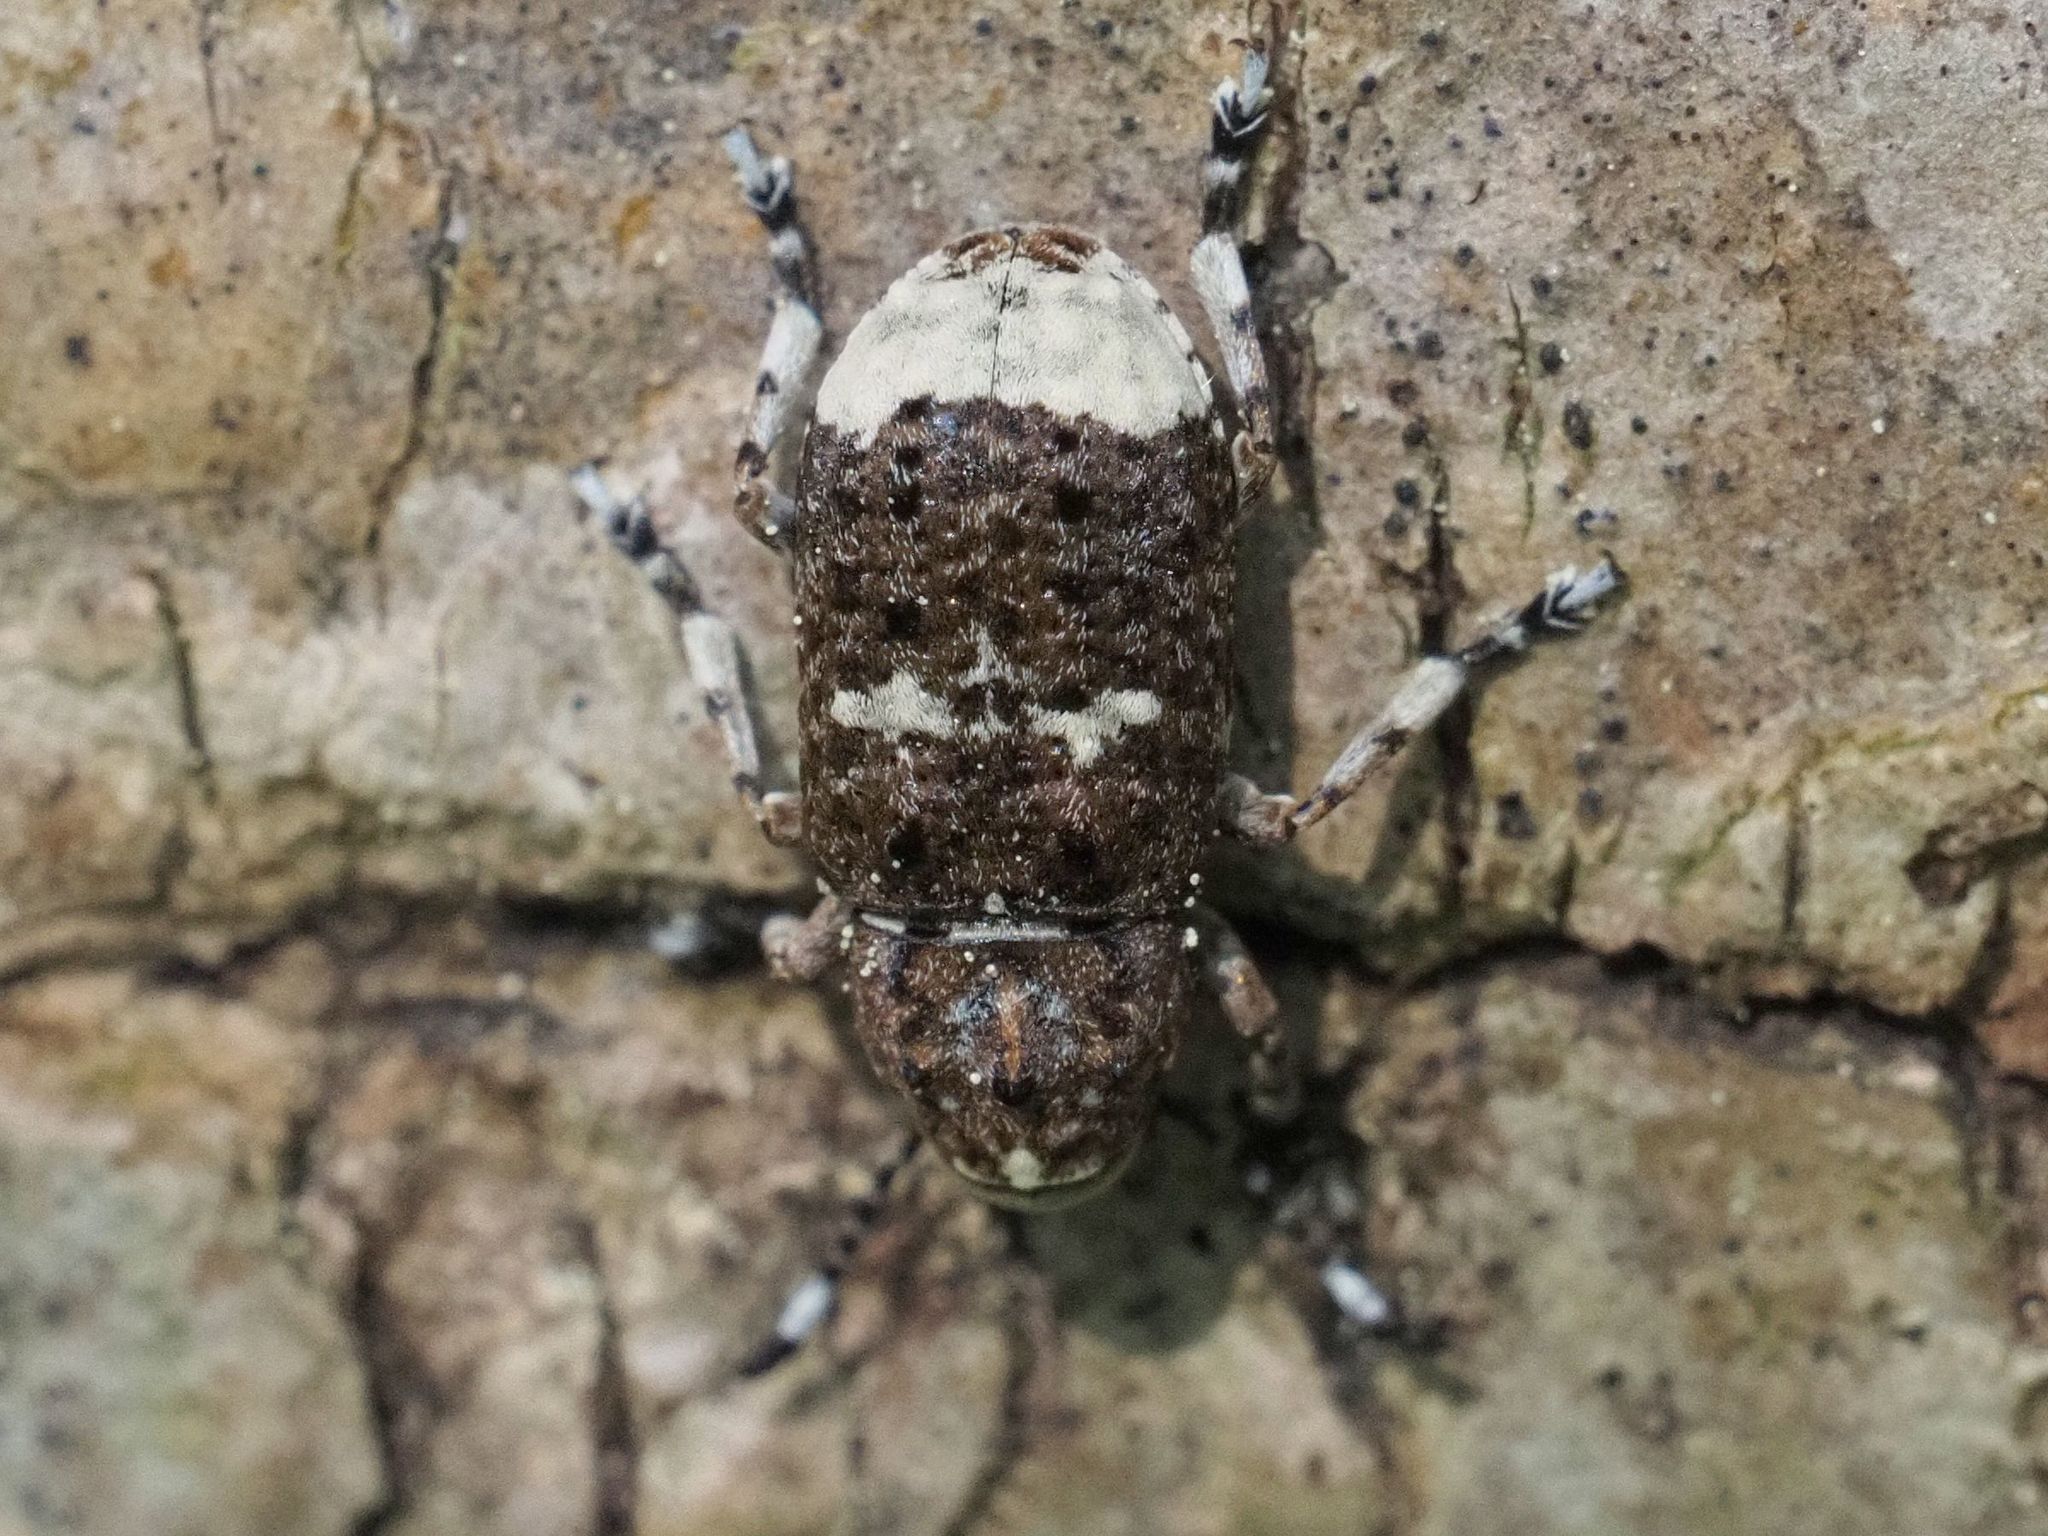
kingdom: Animalia
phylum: Arthropoda
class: Insecta
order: Coleoptera
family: Anthribidae
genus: Platystomos
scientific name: Platystomos albinus
